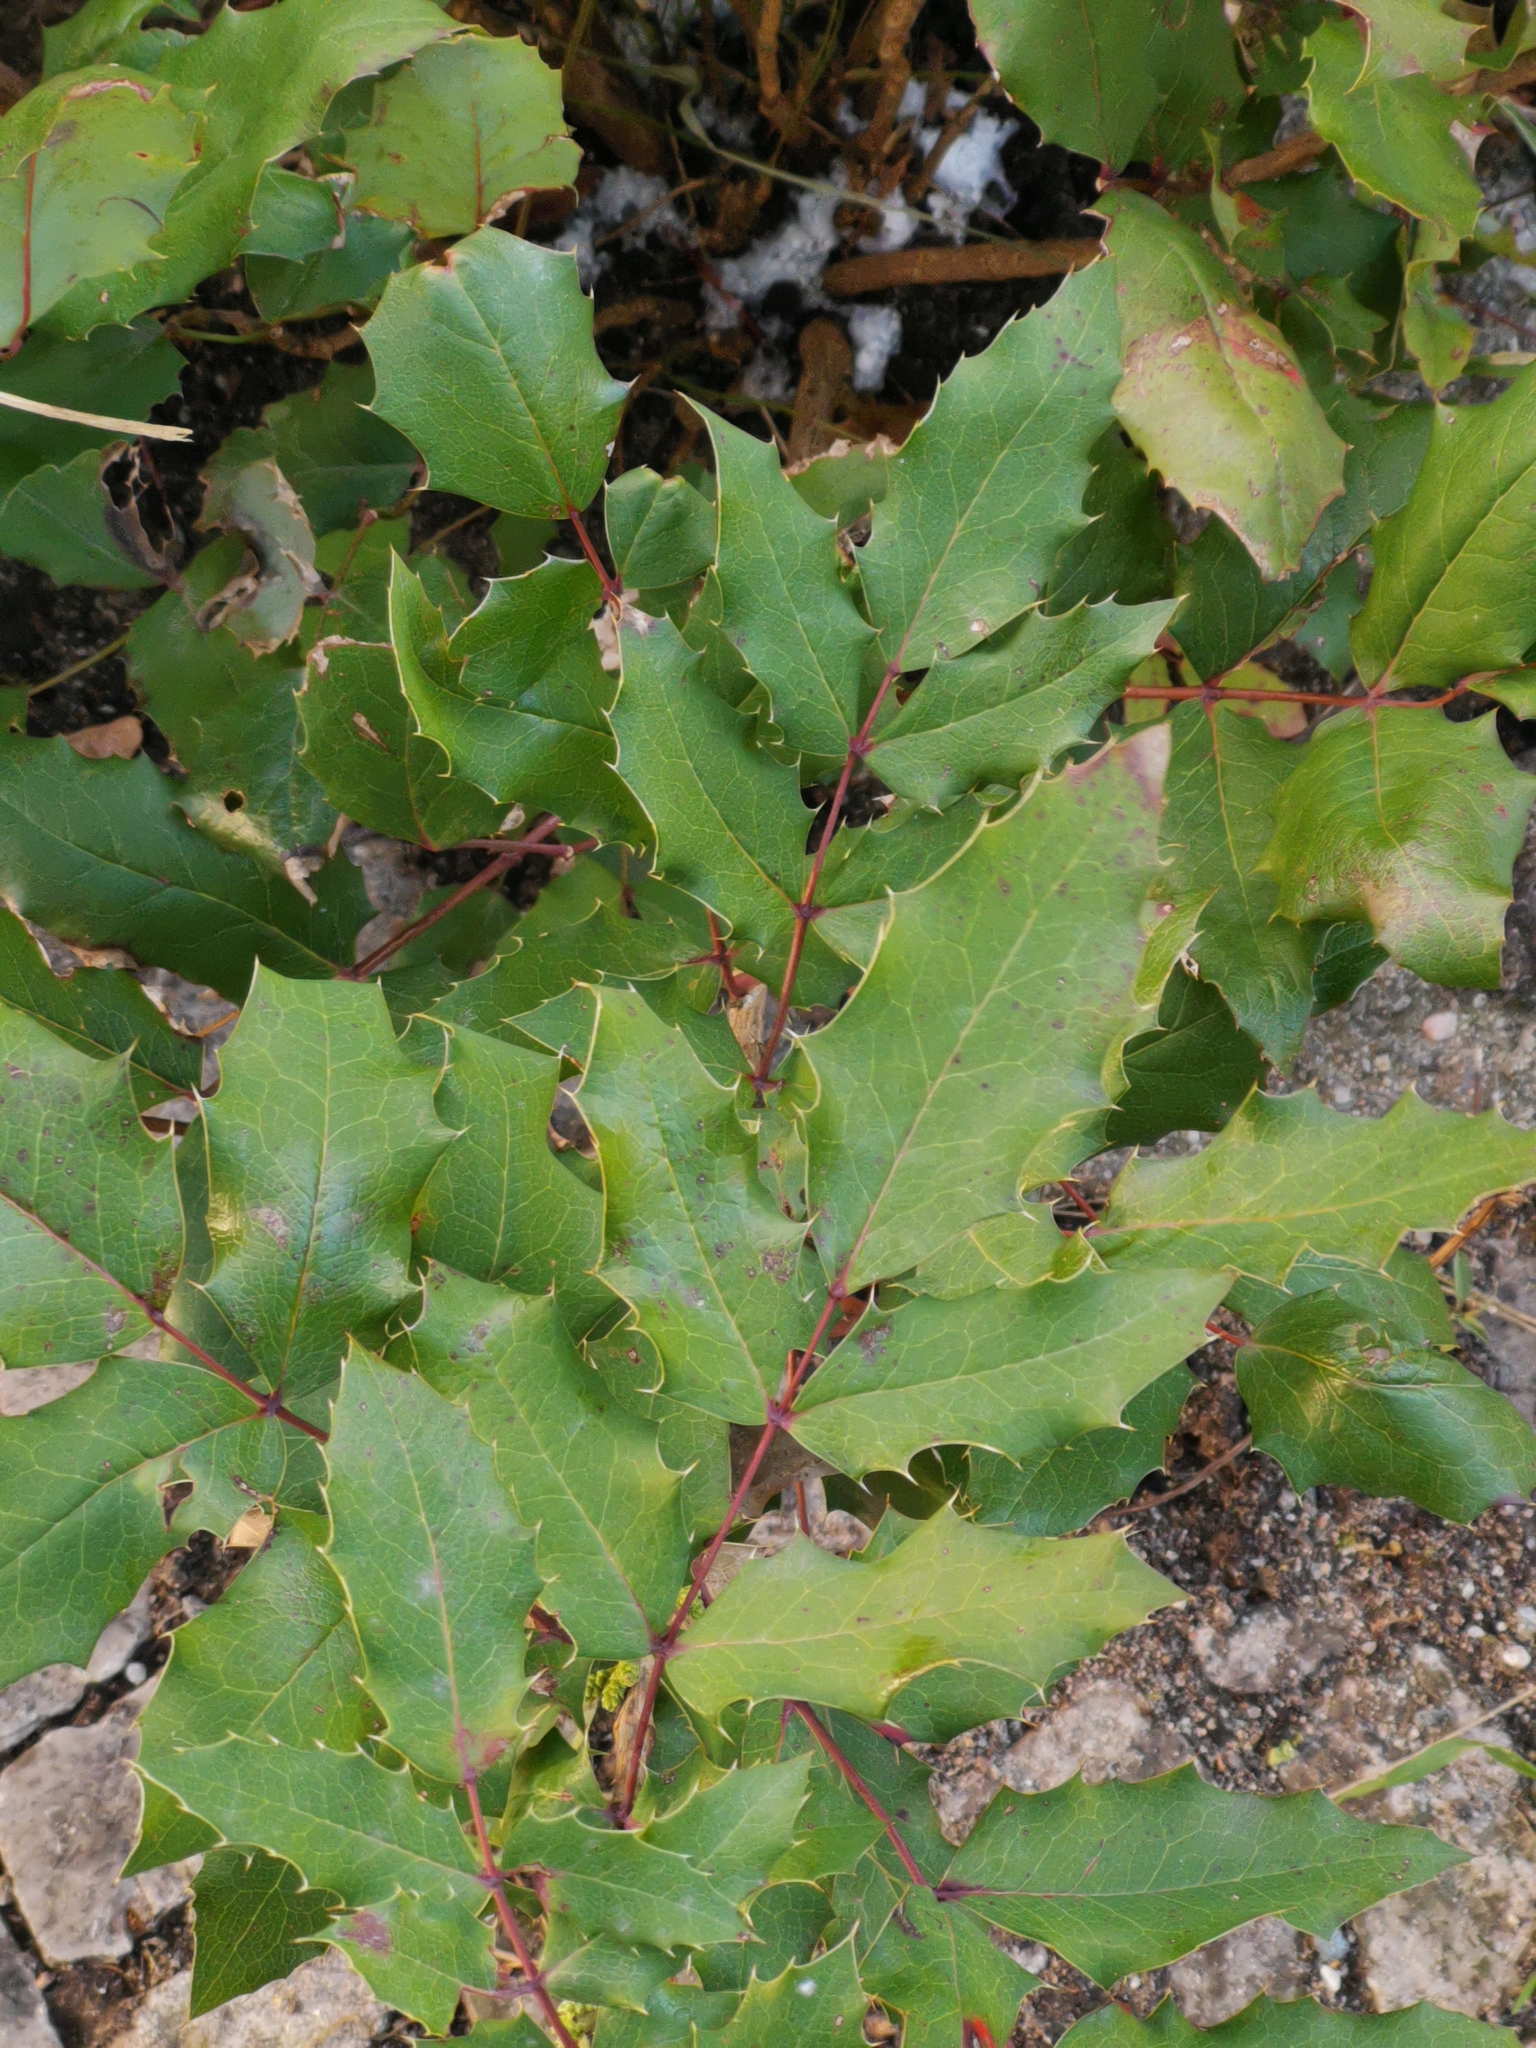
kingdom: Plantae
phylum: Tracheophyta
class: Magnoliopsida
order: Ranunculales
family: Berberidaceae
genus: Mahonia
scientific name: Mahonia aquifolium
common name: Oregon-grape
